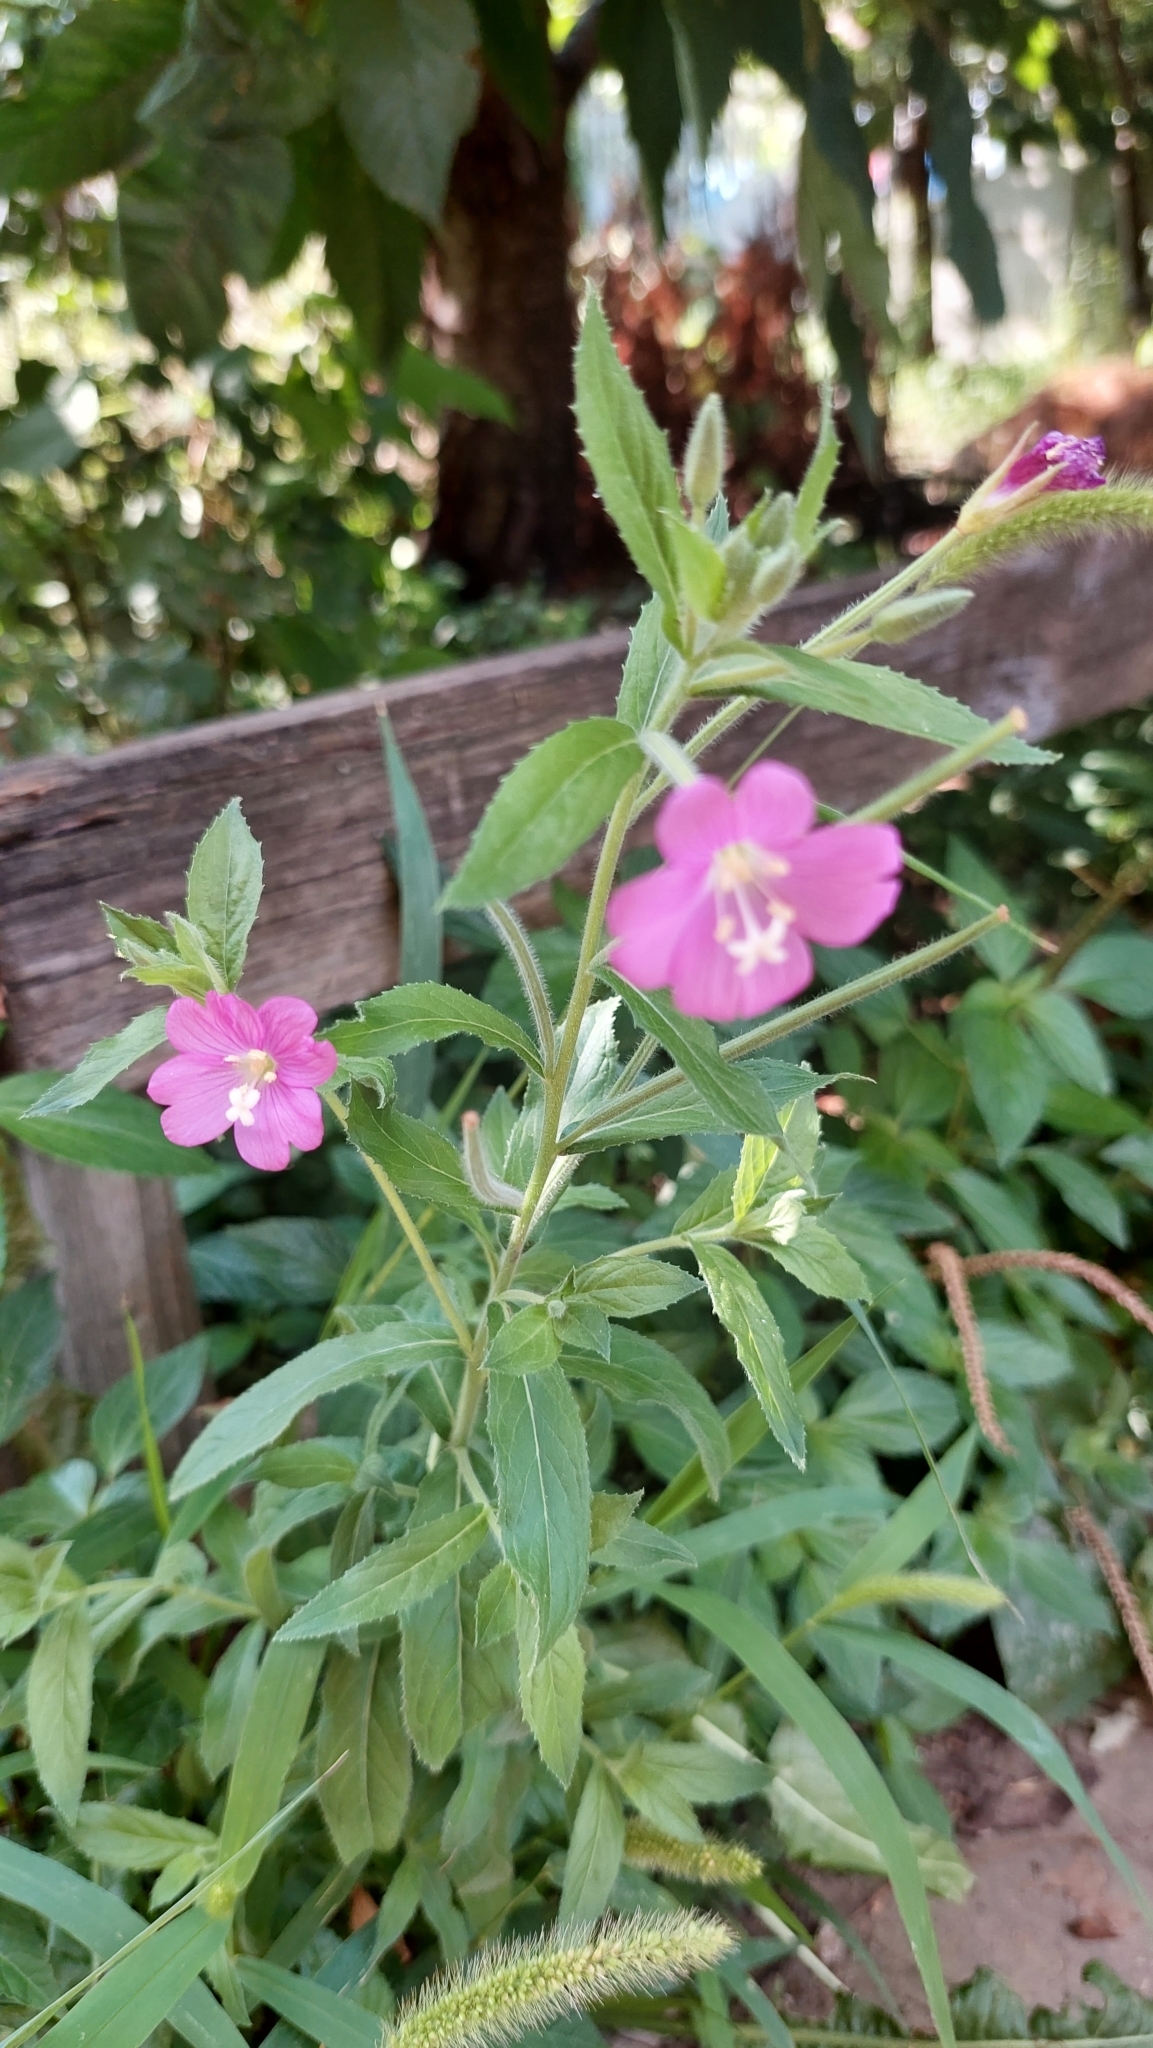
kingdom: Plantae
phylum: Tracheophyta
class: Magnoliopsida
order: Myrtales
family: Onagraceae
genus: Epilobium
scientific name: Epilobium hirsutum
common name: Great willowherb
